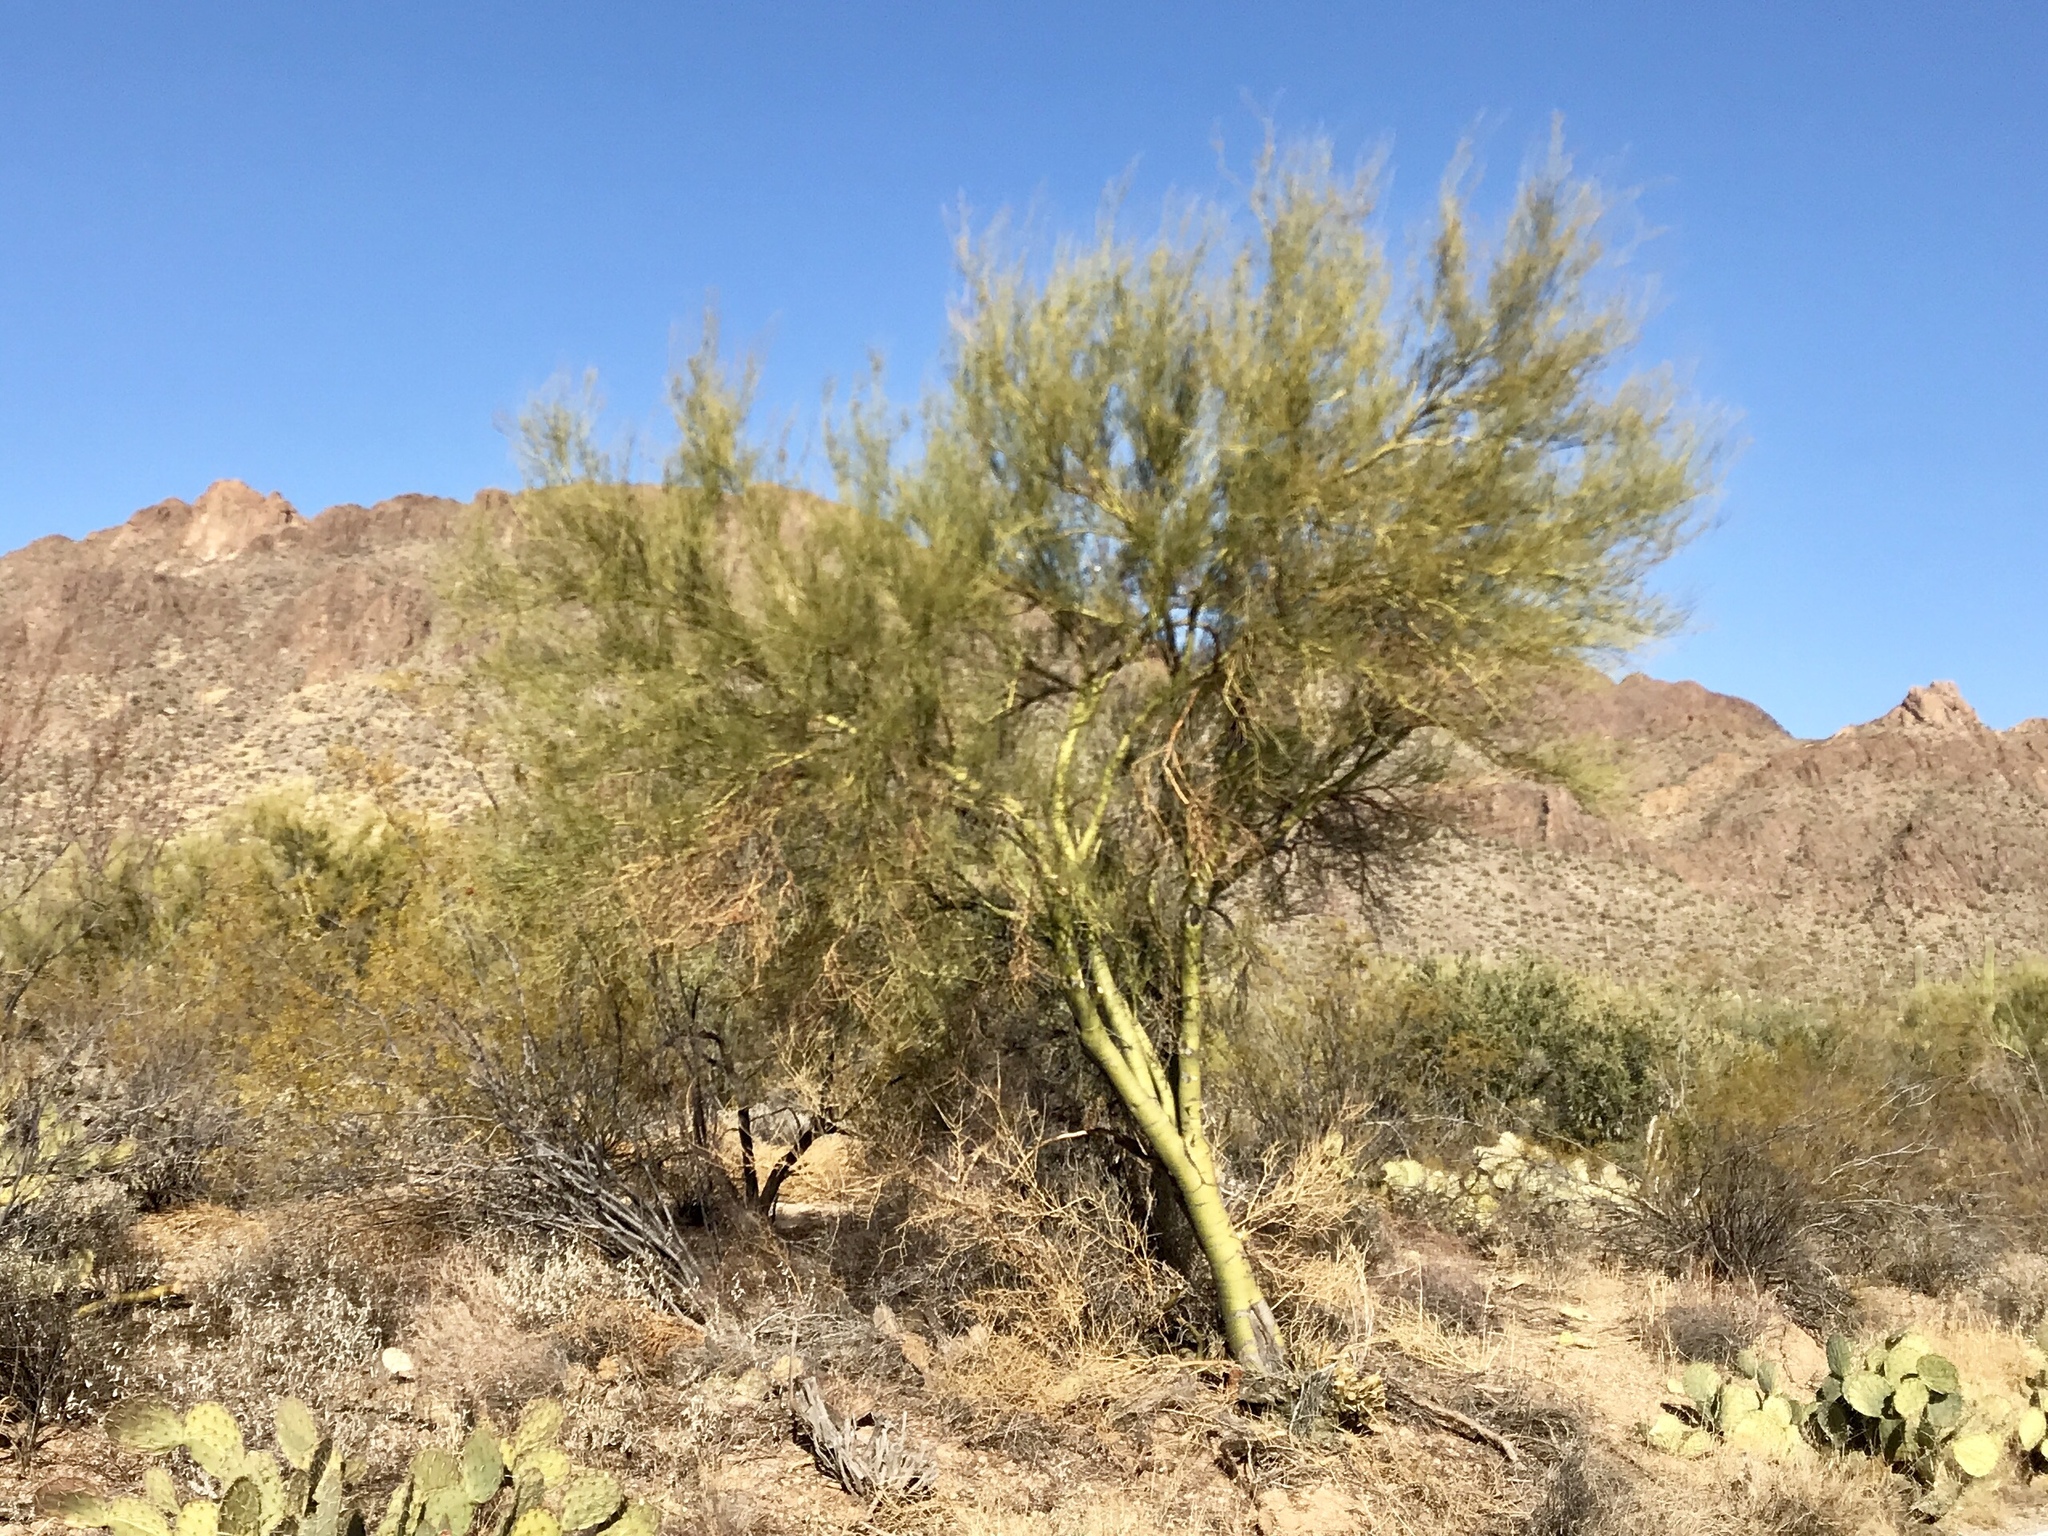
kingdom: Plantae
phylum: Tracheophyta
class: Magnoliopsida
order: Fabales
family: Fabaceae
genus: Parkinsonia
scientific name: Parkinsonia microphylla
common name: Yellow paloverde
